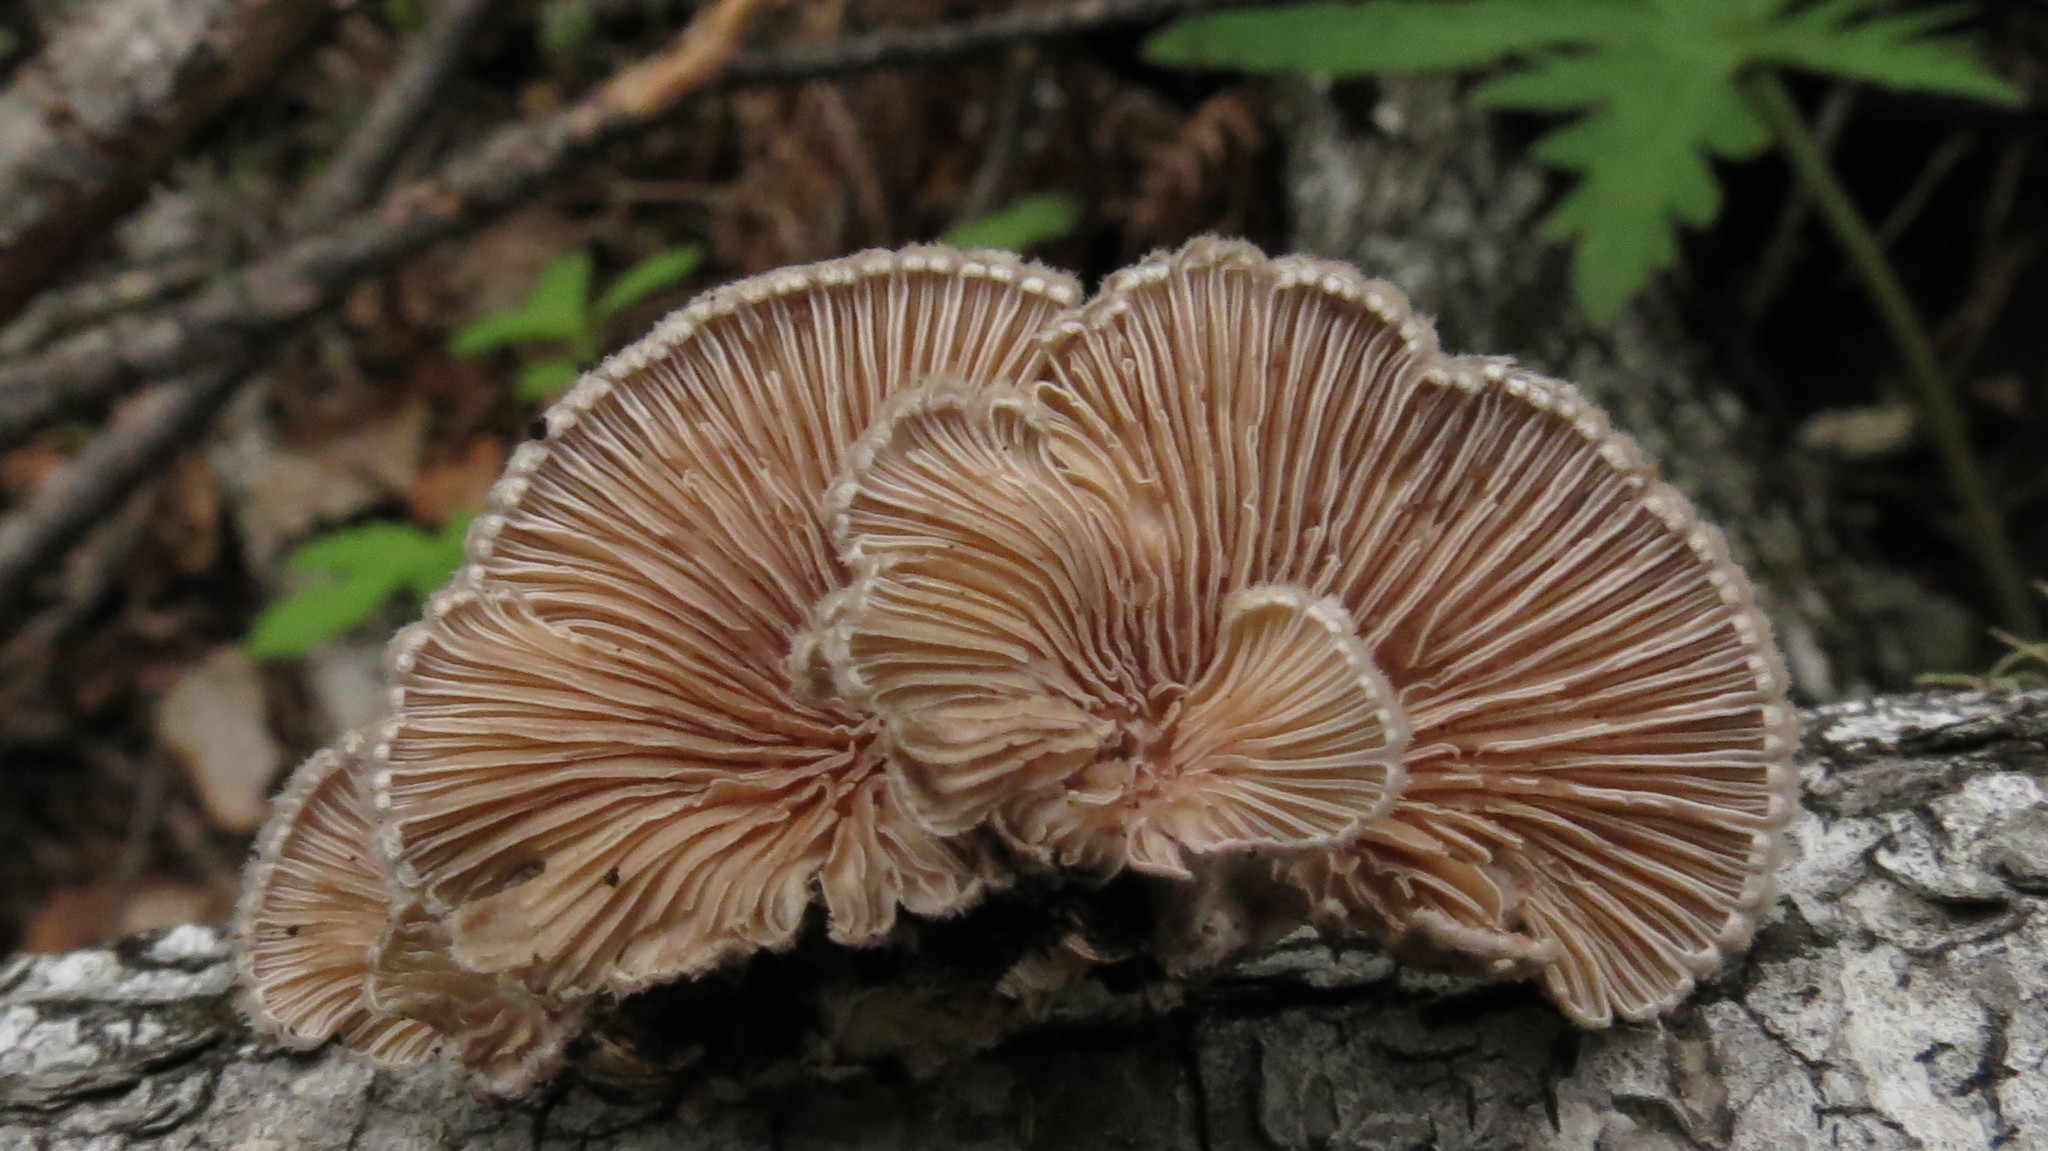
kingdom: Fungi
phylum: Basidiomycota
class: Agaricomycetes
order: Agaricales
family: Schizophyllaceae
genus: Schizophyllum
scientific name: Schizophyllum commune
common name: Common porecrust
